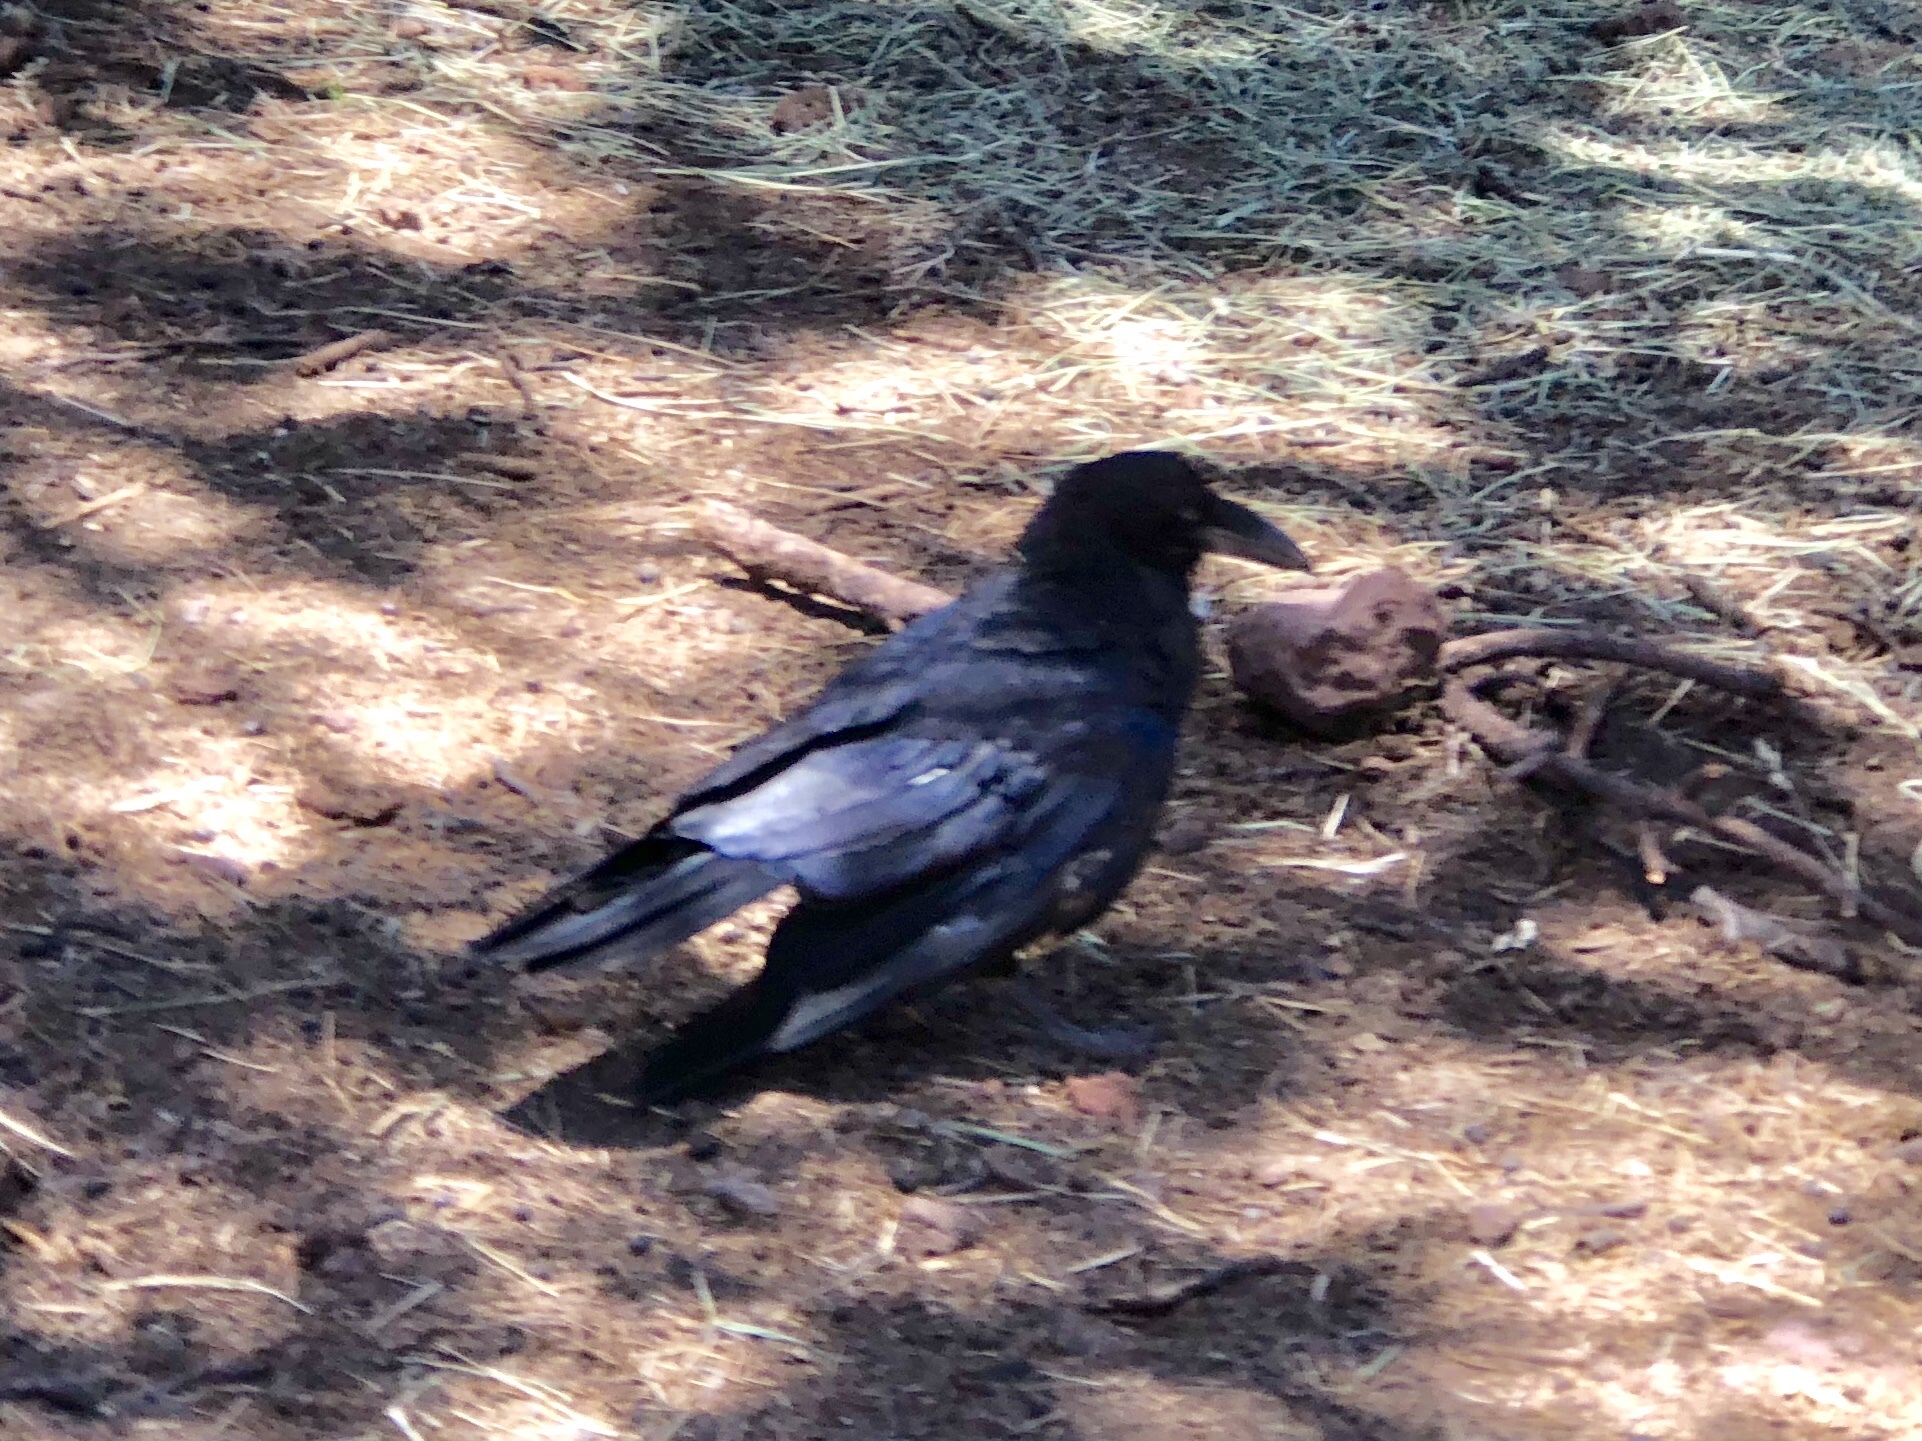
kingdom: Animalia
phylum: Chordata
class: Aves
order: Passeriformes
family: Corvidae
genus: Corvus
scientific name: Corvus corax
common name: Common raven
